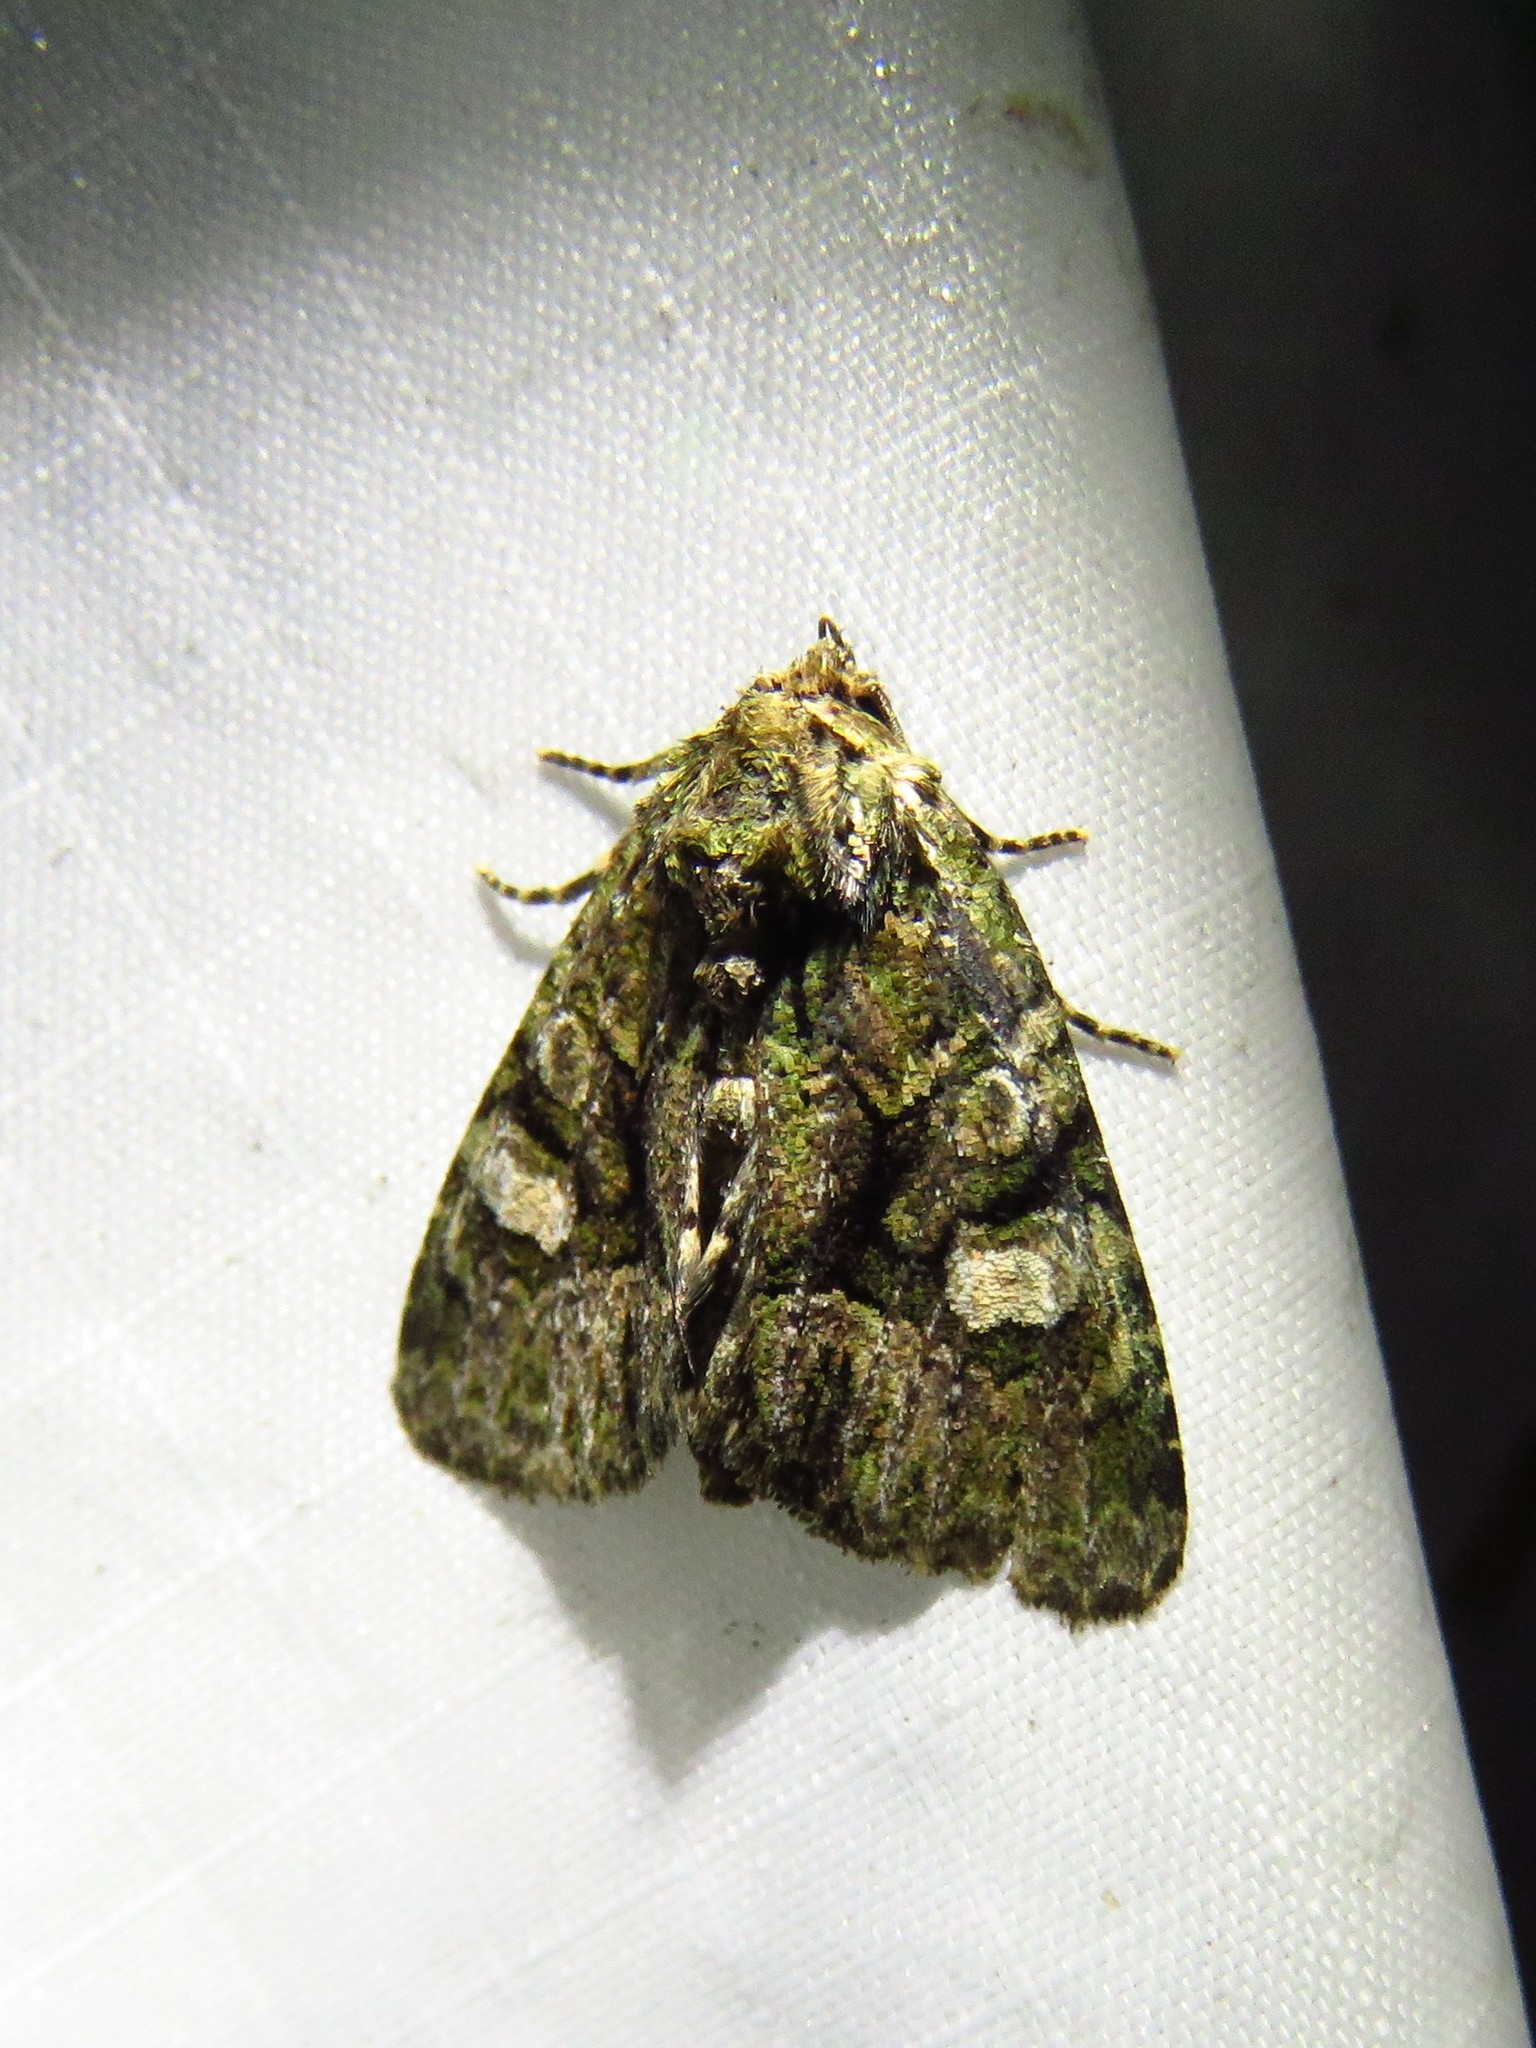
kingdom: Animalia
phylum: Arthropoda
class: Insecta
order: Lepidoptera
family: Noctuidae
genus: Phosphila
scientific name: Phosphila miselioides
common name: Spotted phosphila moth
